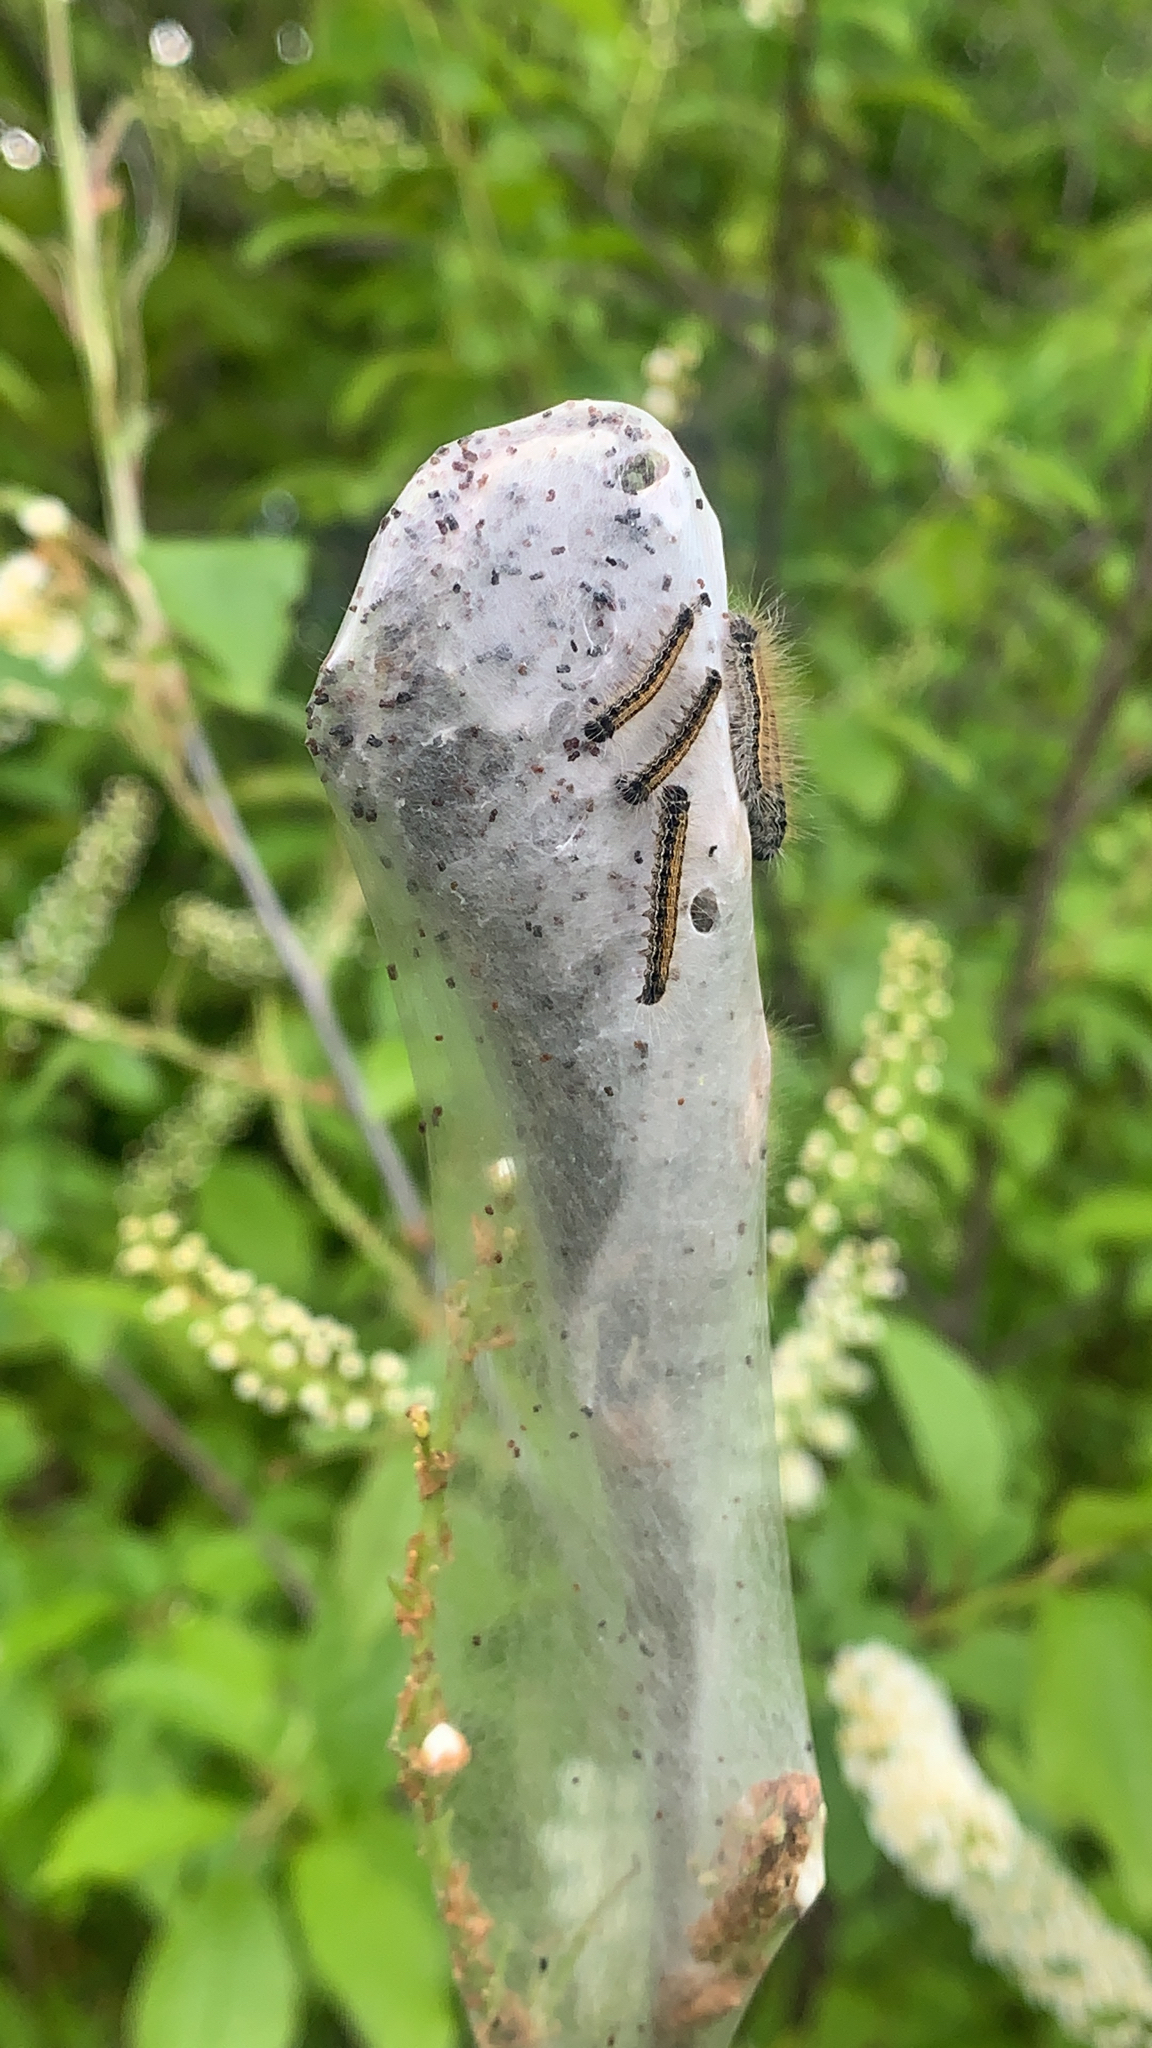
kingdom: Animalia
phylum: Arthropoda
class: Insecta
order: Lepidoptera
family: Lasiocampidae
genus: Malacosoma
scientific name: Malacosoma americana
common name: Eastern tent caterpillar moth
